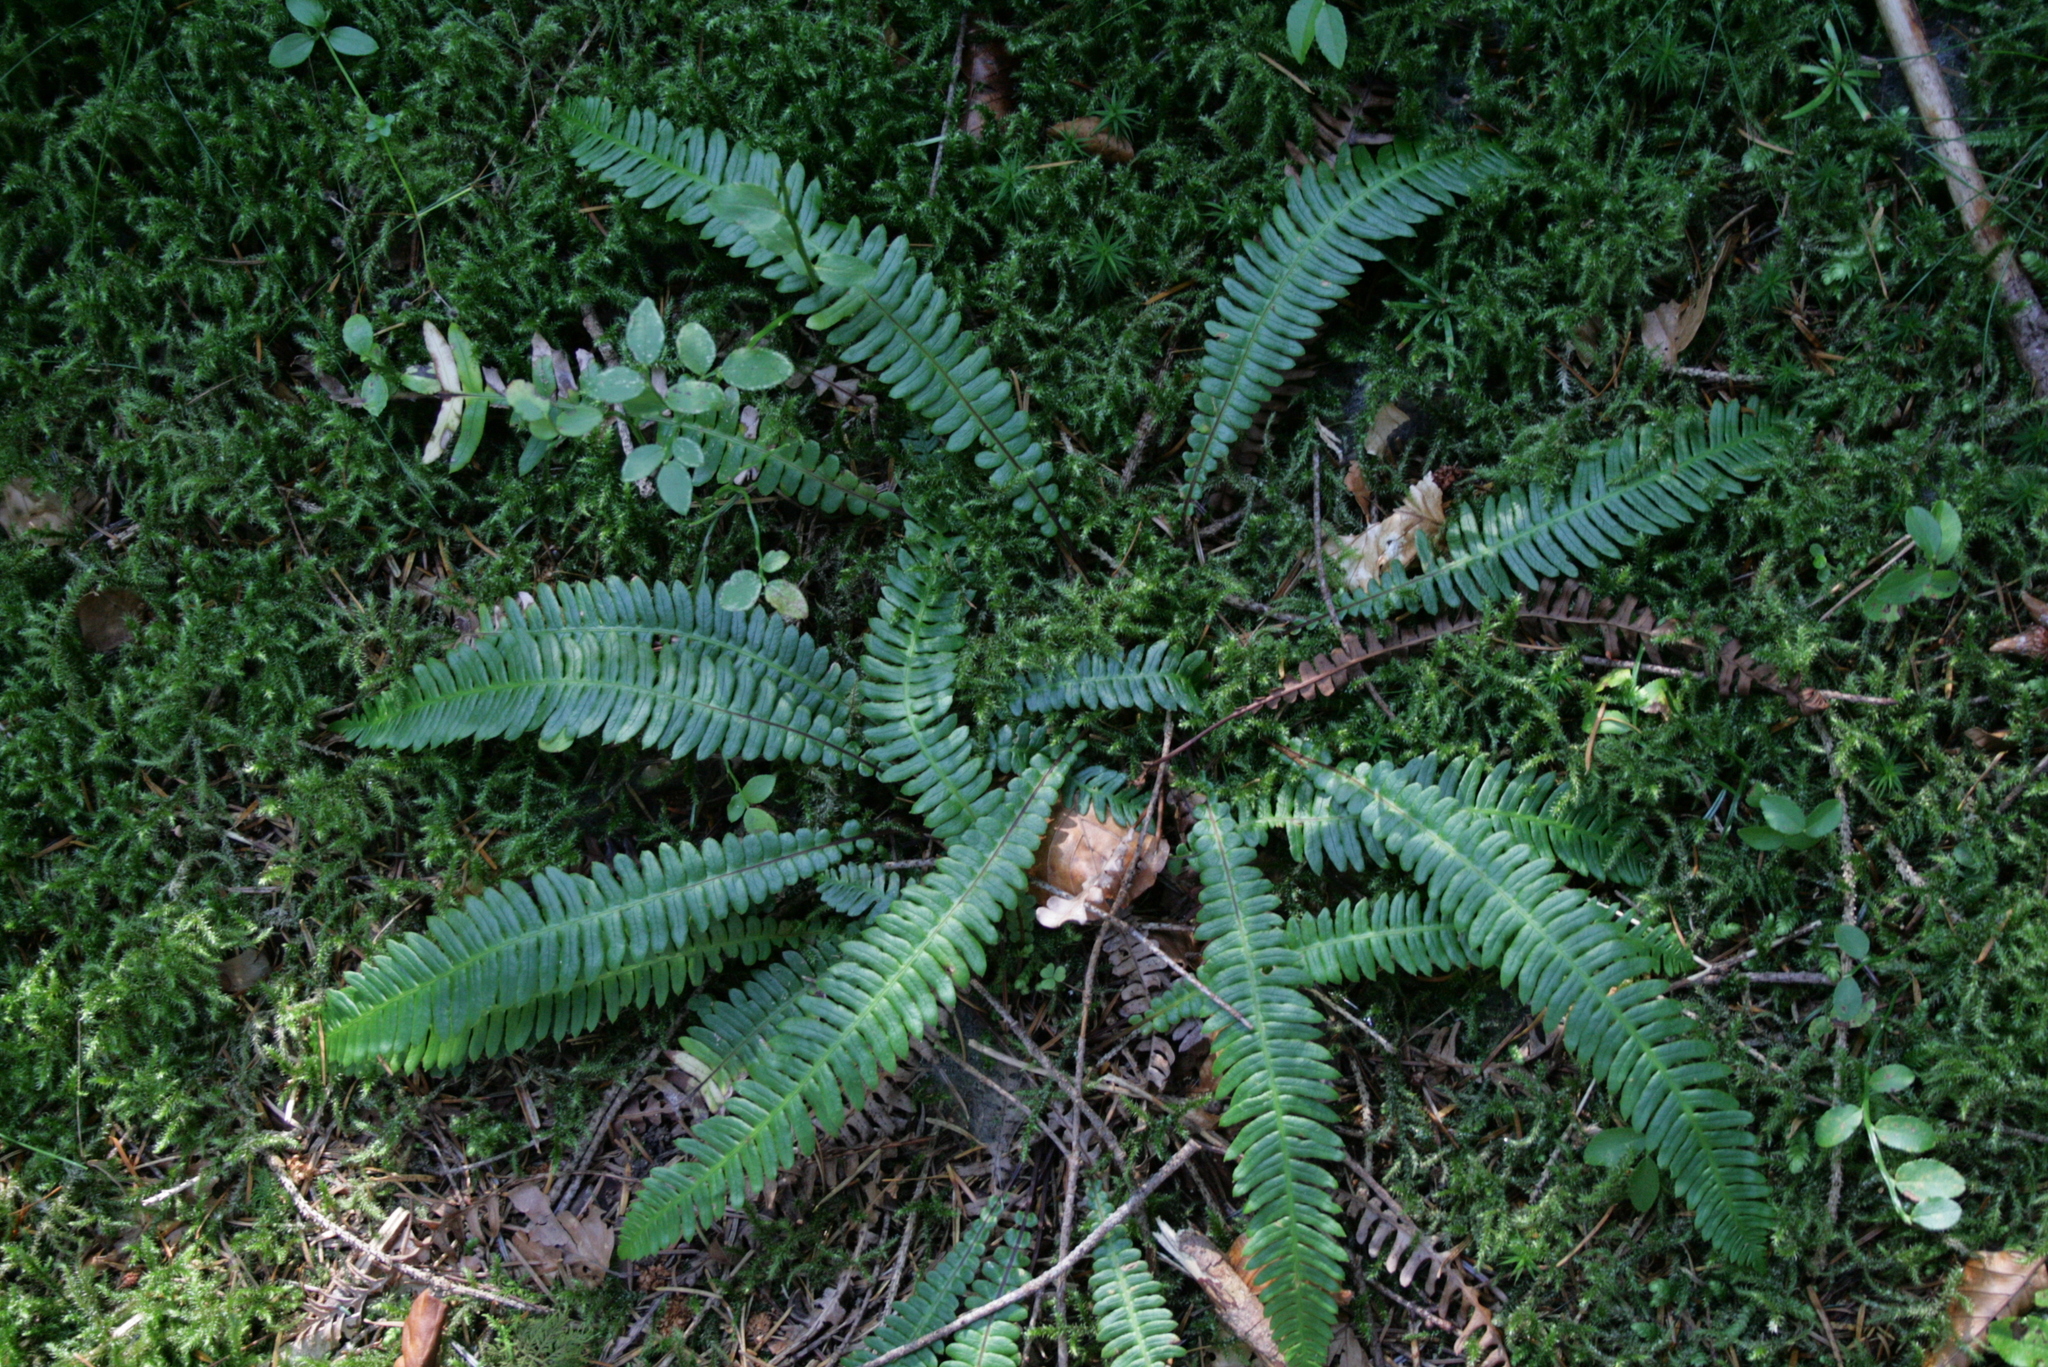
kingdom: Plantae
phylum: Tracheophyta
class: Polypodiopsida
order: Polypodiales
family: Blechnaceae
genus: Struthiopteris
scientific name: Struthiopteris spicant
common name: Deer fern
